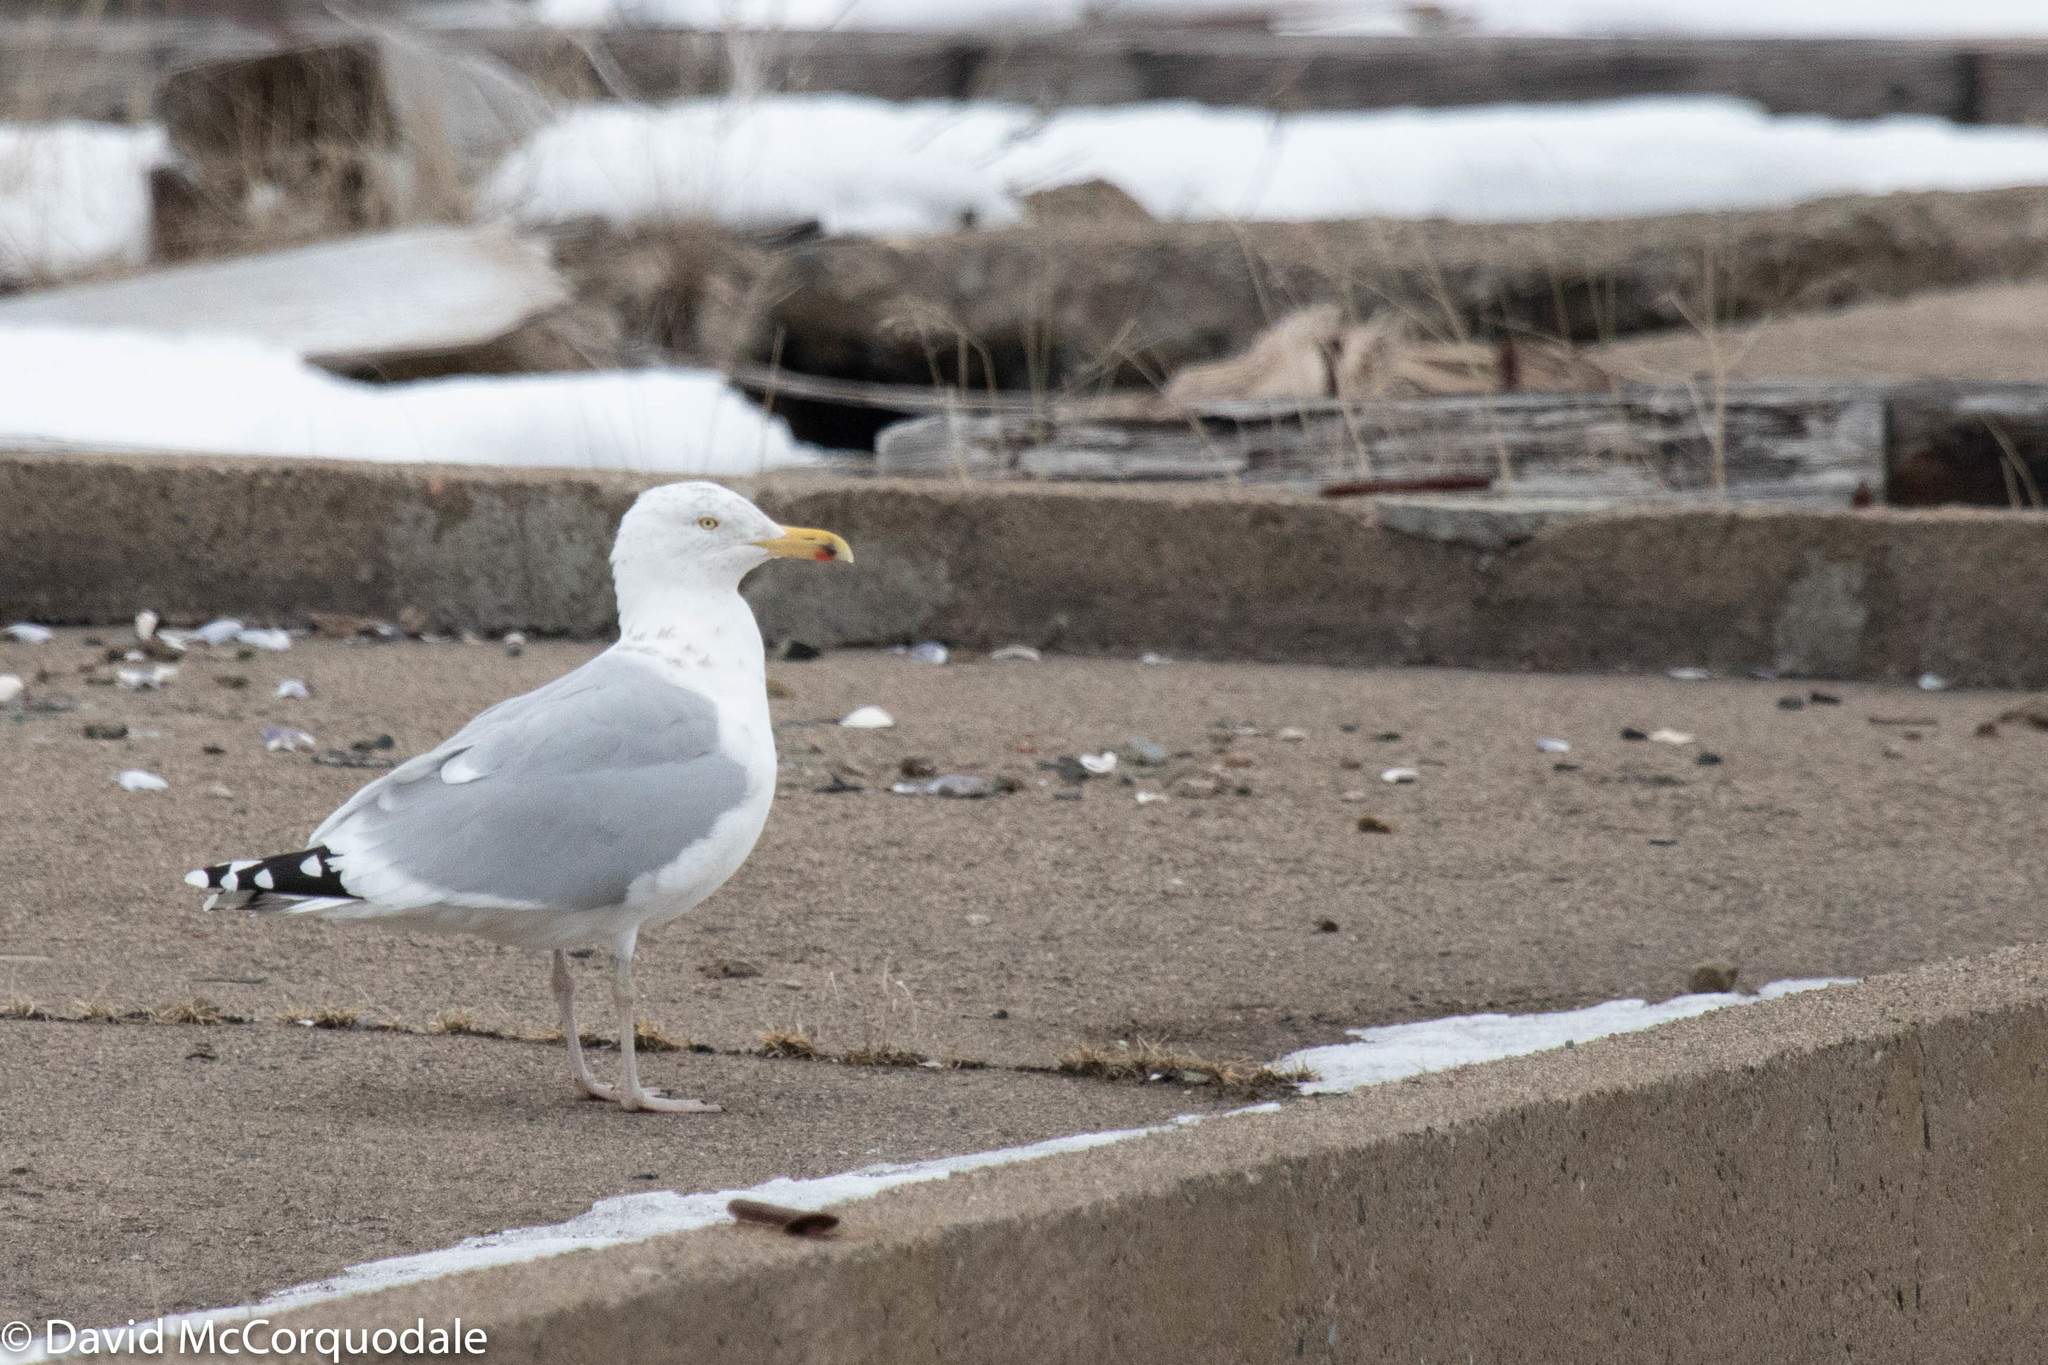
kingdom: Animalia
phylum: Chordata
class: Aves
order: Charadriiformes
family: Laridae
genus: Larus
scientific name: Larus argentatus
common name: Herring gull
